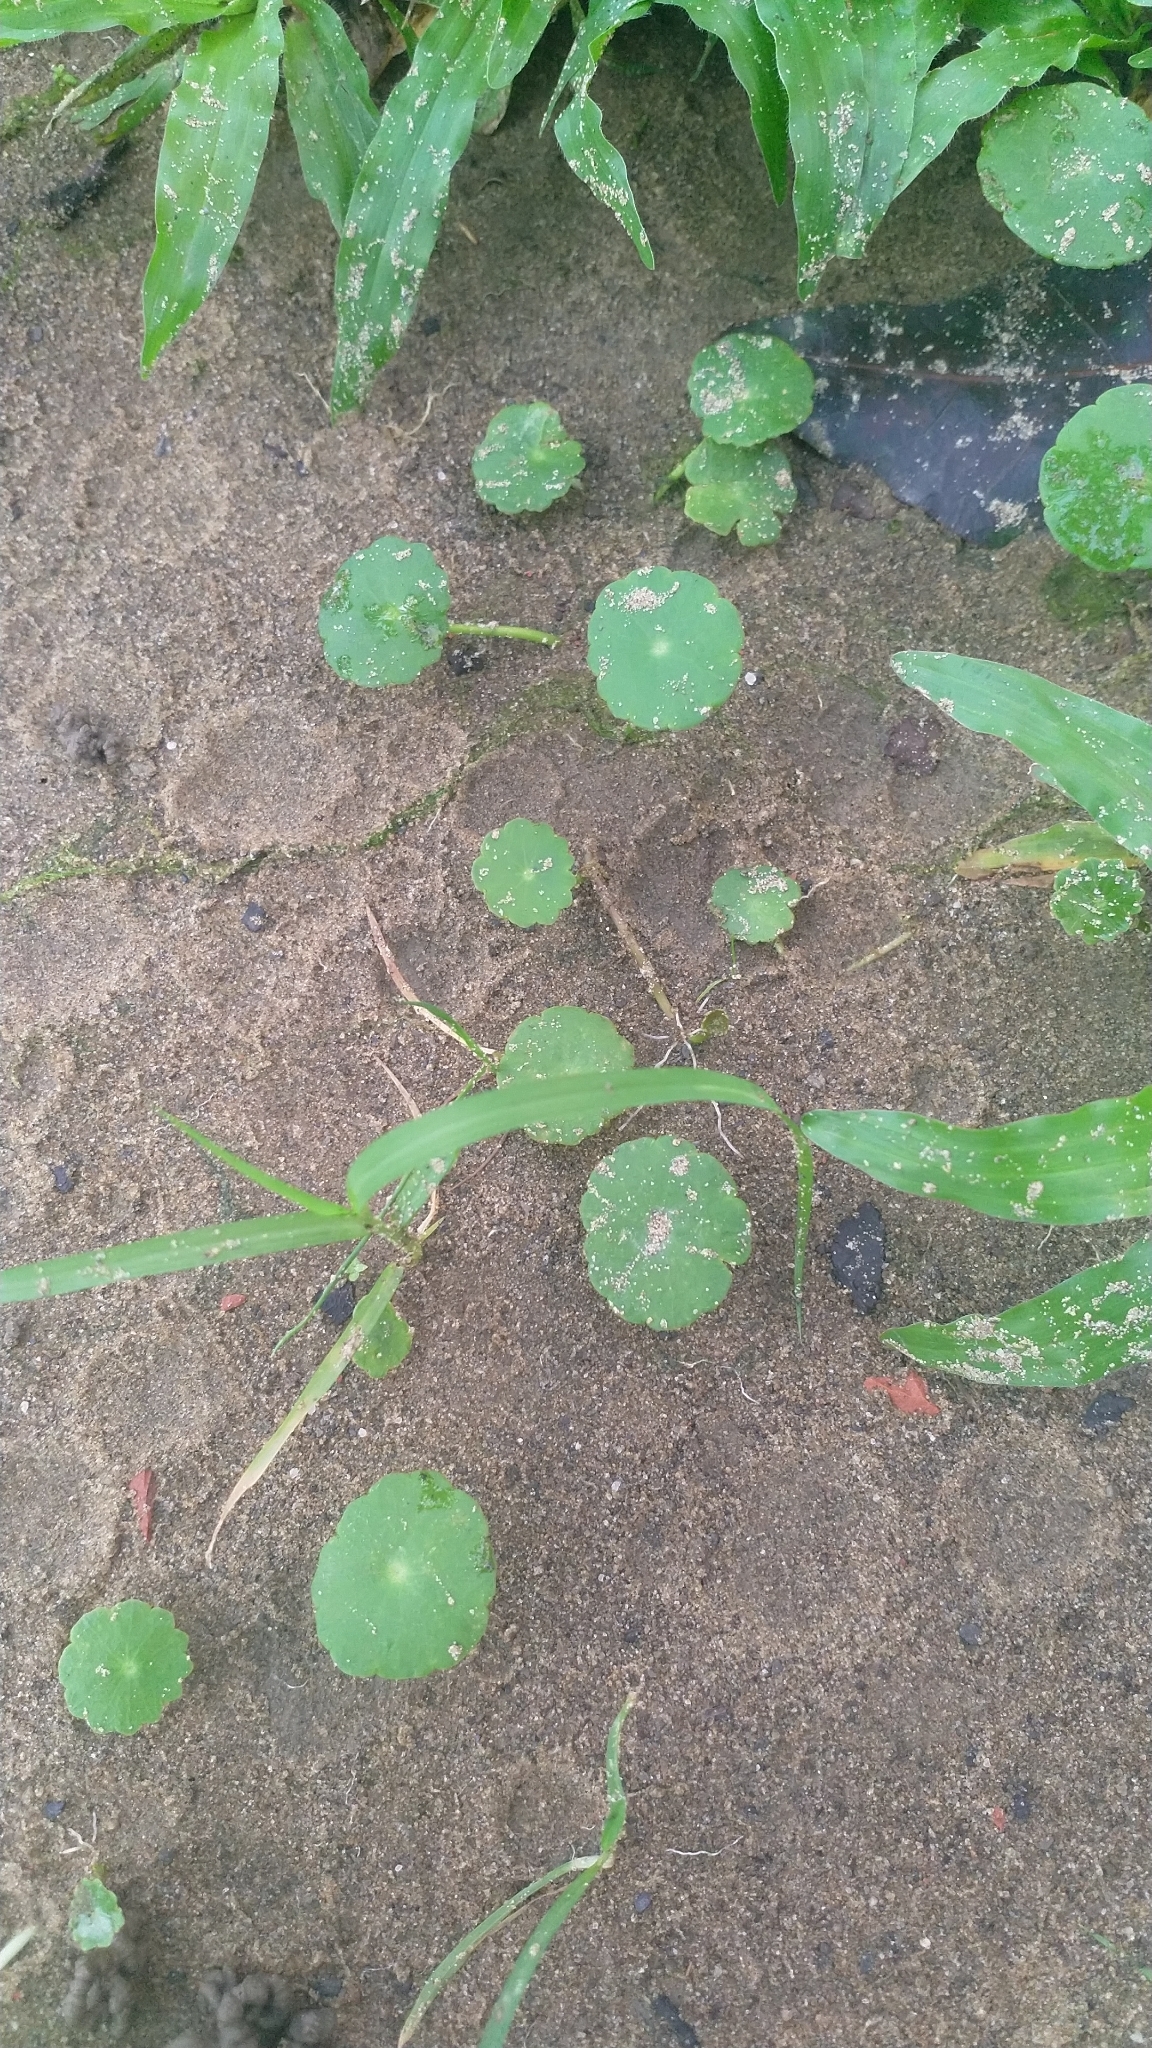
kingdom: Plantae
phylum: Tracheophyta
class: Magnoliopsida
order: Apiales
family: Araliaceae
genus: Hydrocotyle
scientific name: Hydrocotyle verticillata
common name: Whorled marshpennywort
